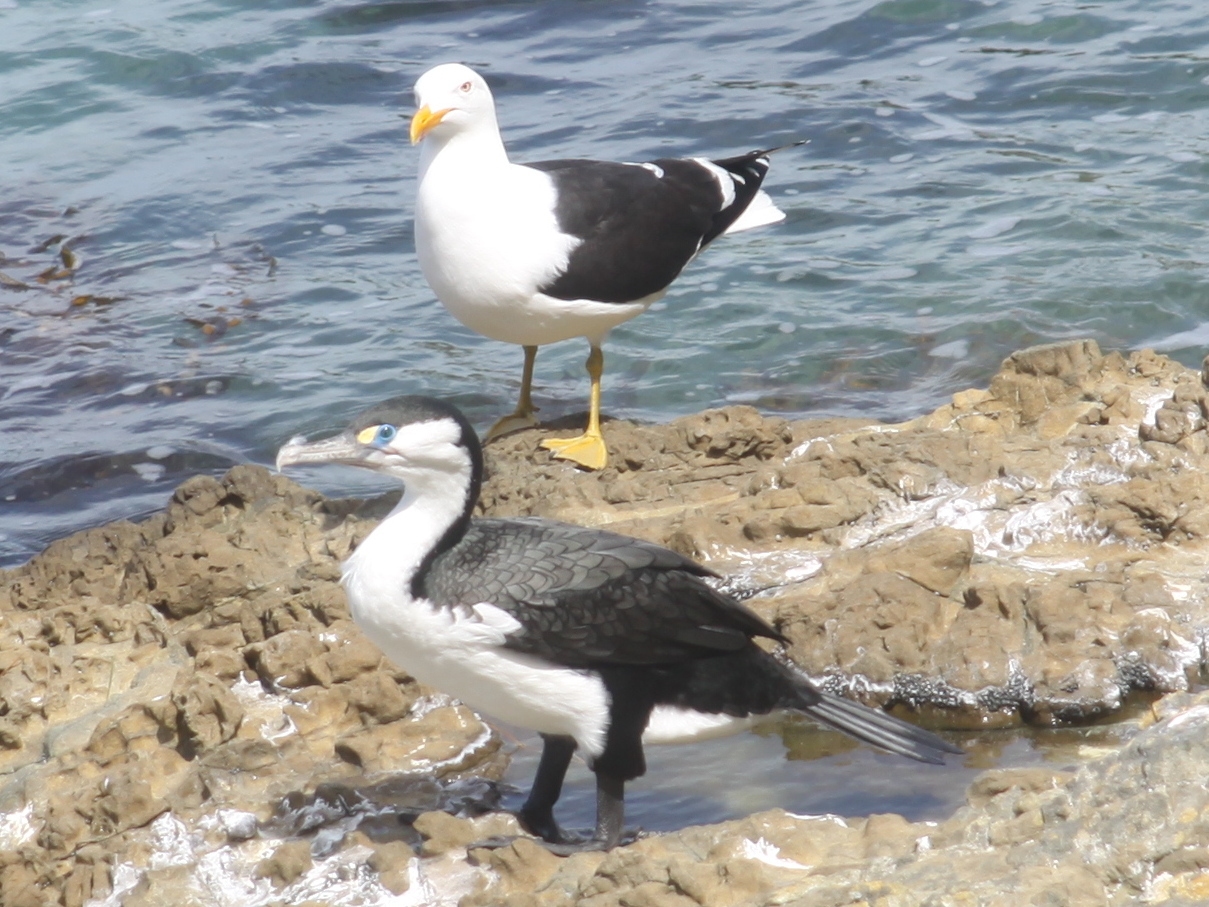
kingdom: Animalia
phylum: Chordata
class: Aves
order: Suliformes
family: Phalacrocoracidae
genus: Phalacrocorax
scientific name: Phalacrocorax varius
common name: Pied cormorant
